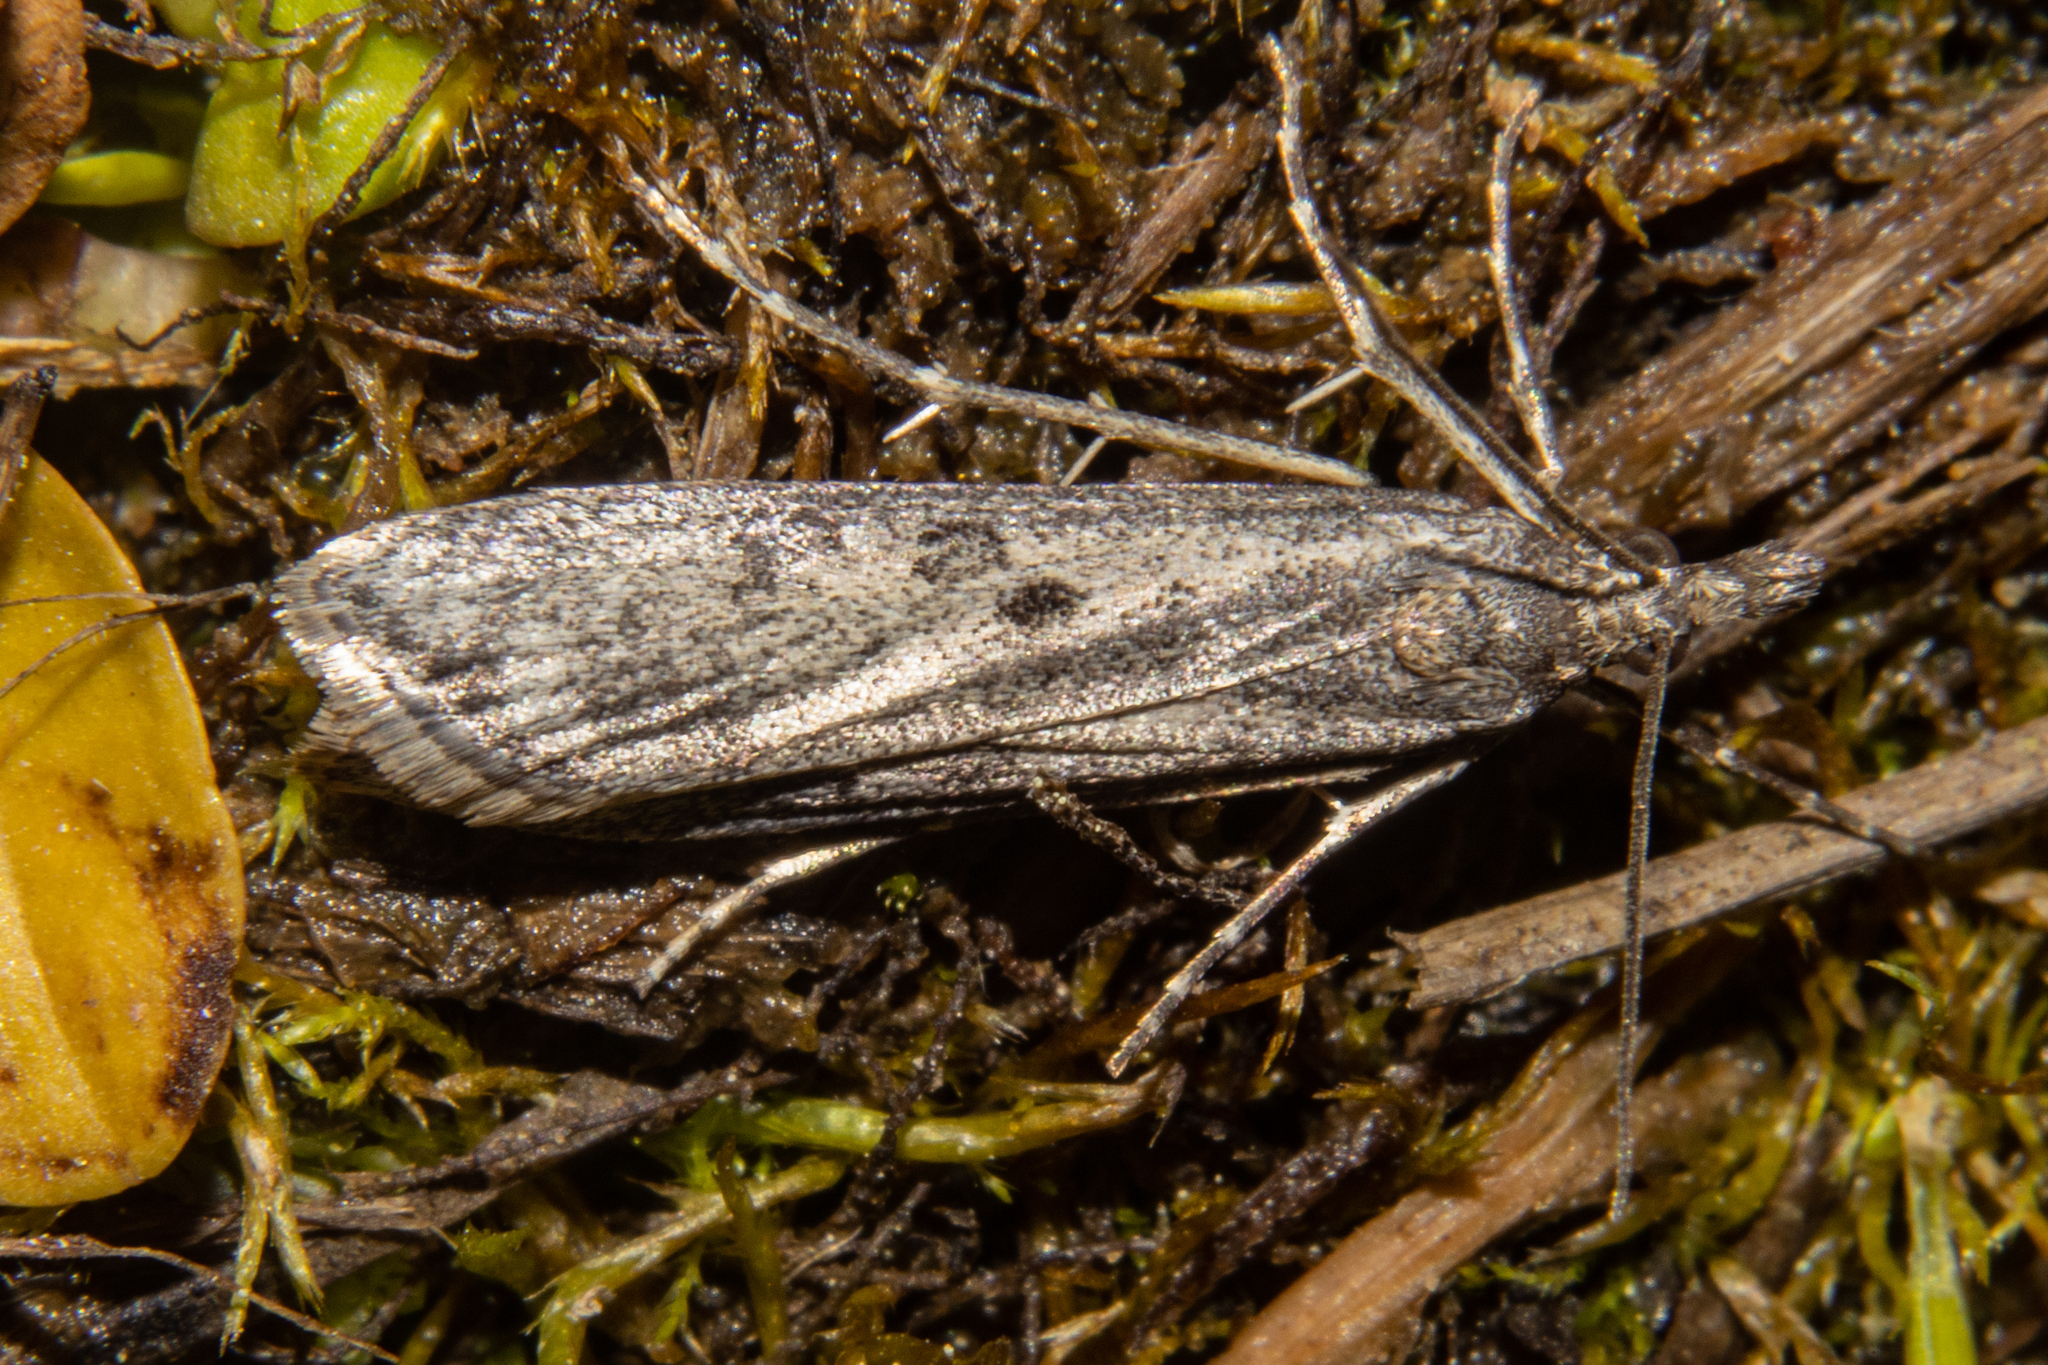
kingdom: Animalia
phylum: Arthropoda
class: Insecta
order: Lepidoptera
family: Crambidae
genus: Eudonia
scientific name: Eudonia leptalea
